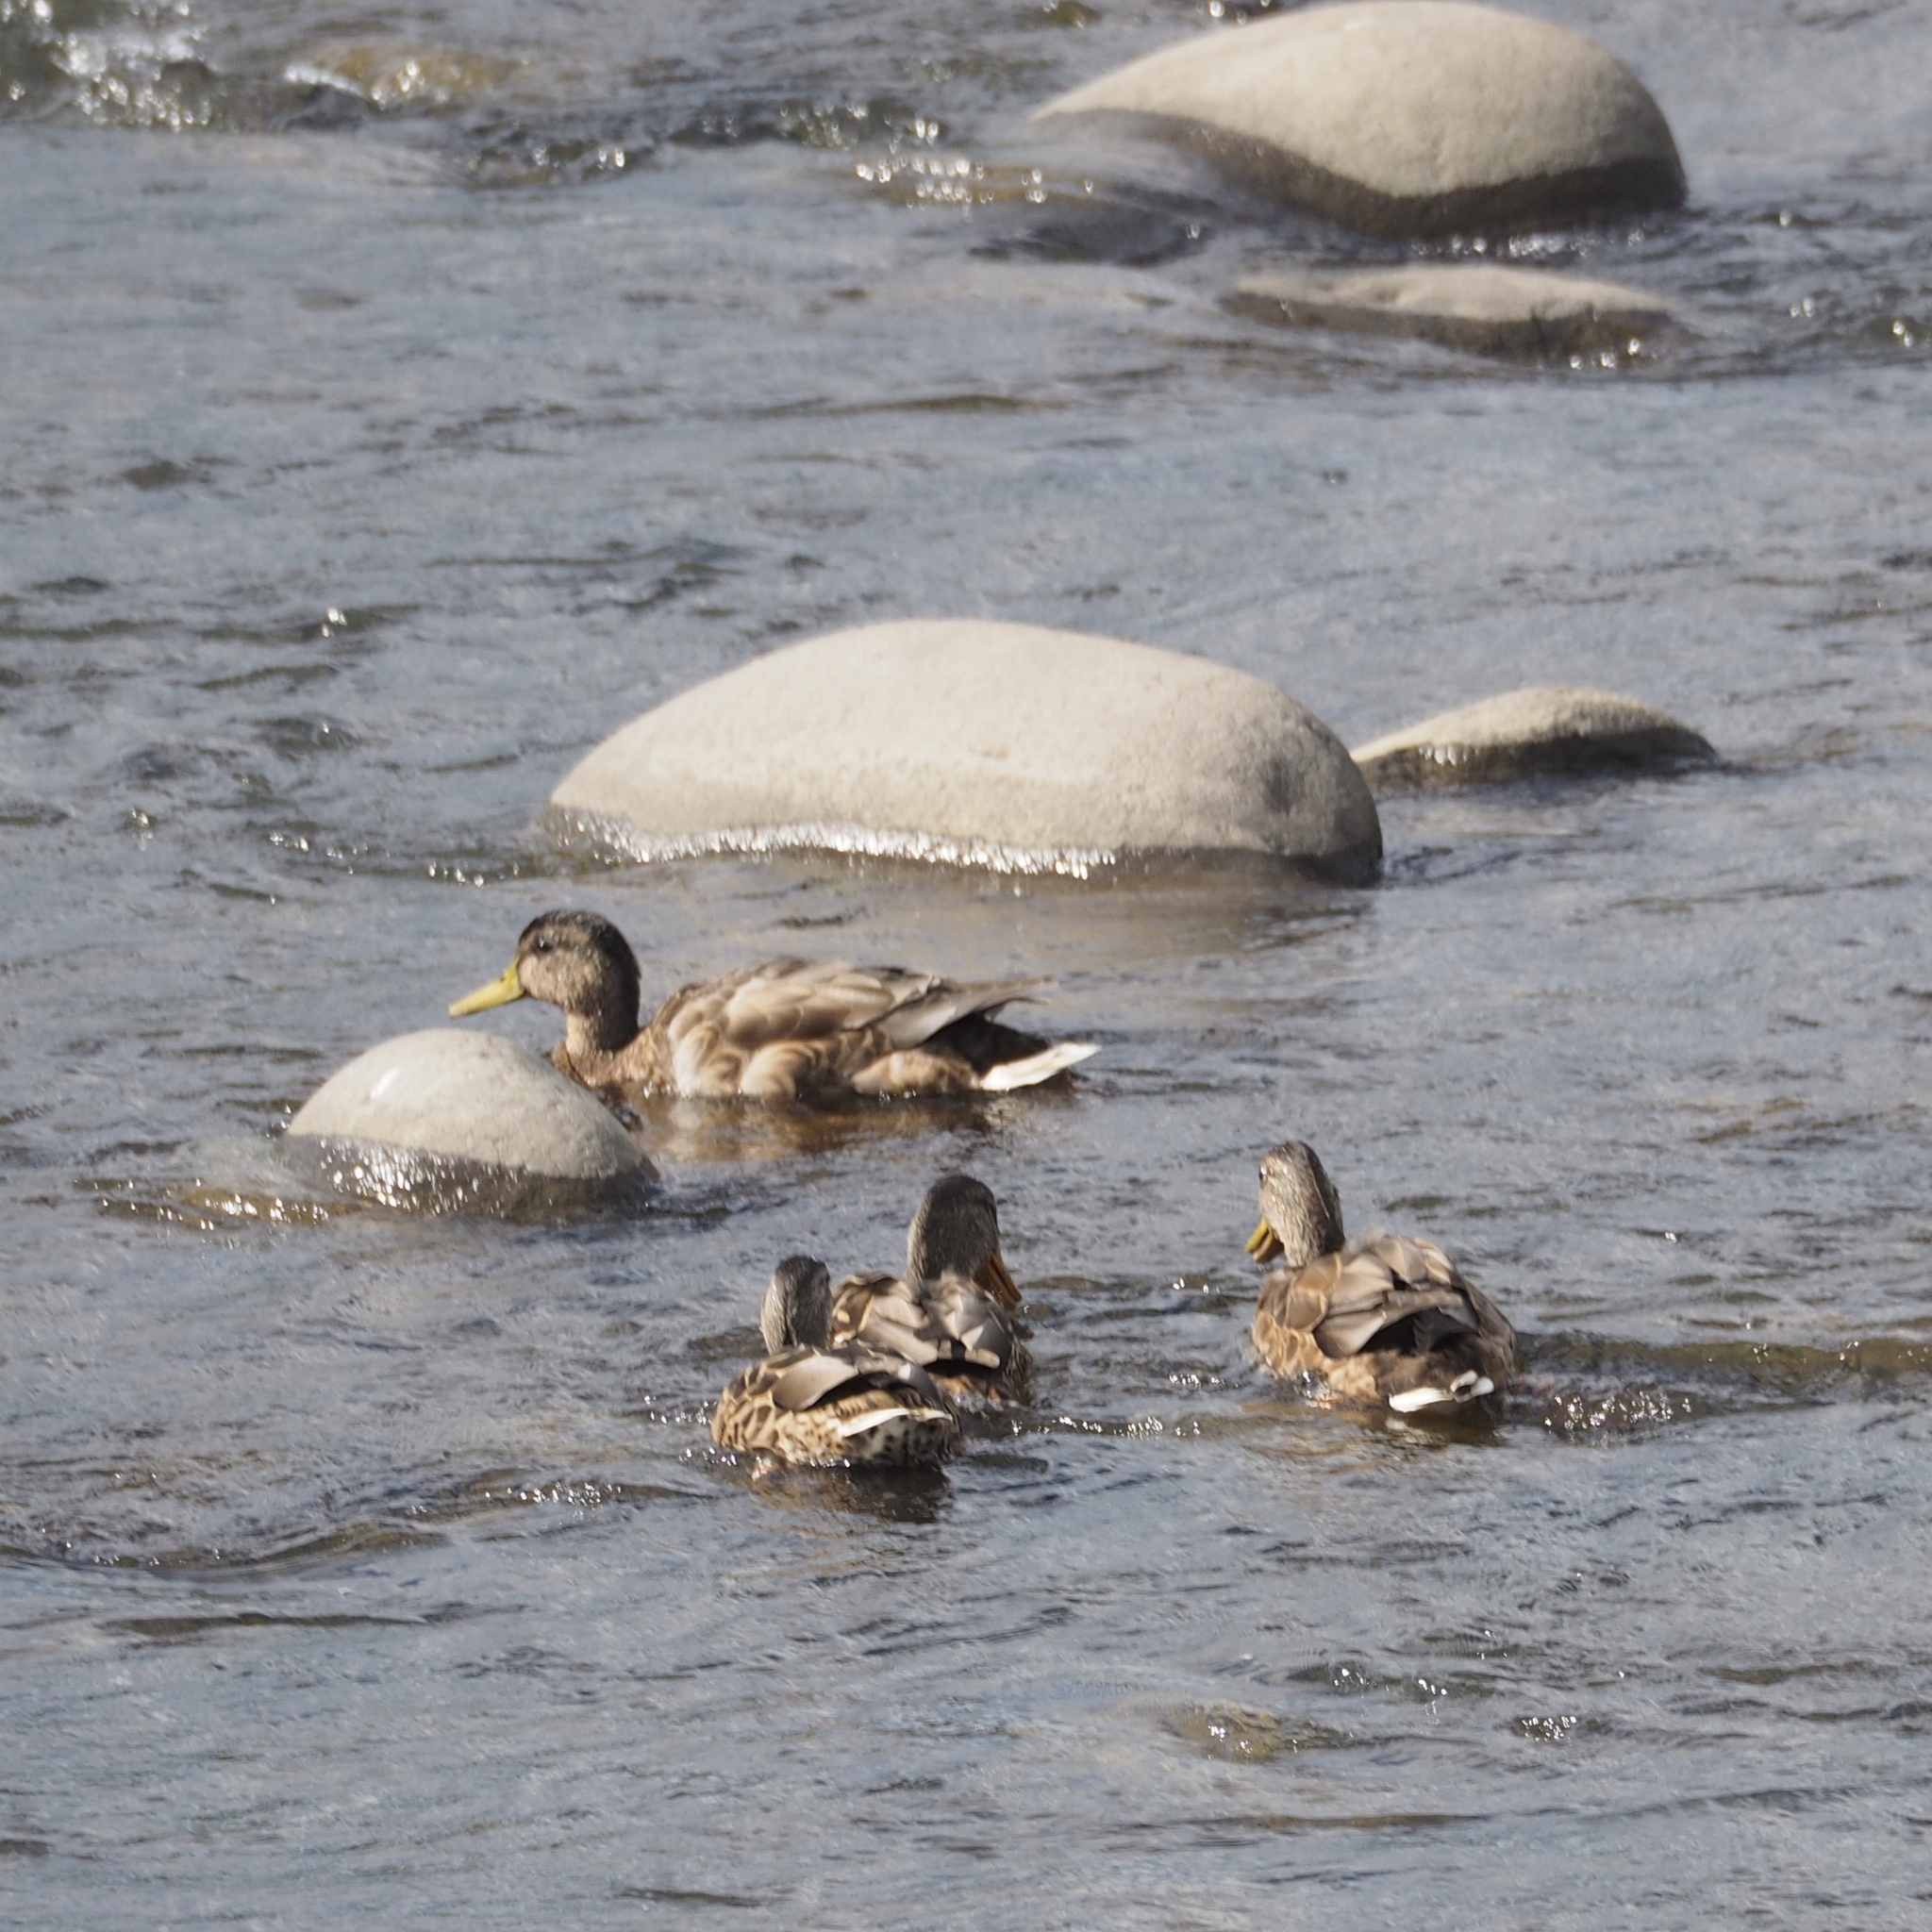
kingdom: Animalia
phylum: Chordata
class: Aves
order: Anseriformes
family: Anatidae
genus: Anas
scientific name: Anas platyrhynchos
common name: Mallard
